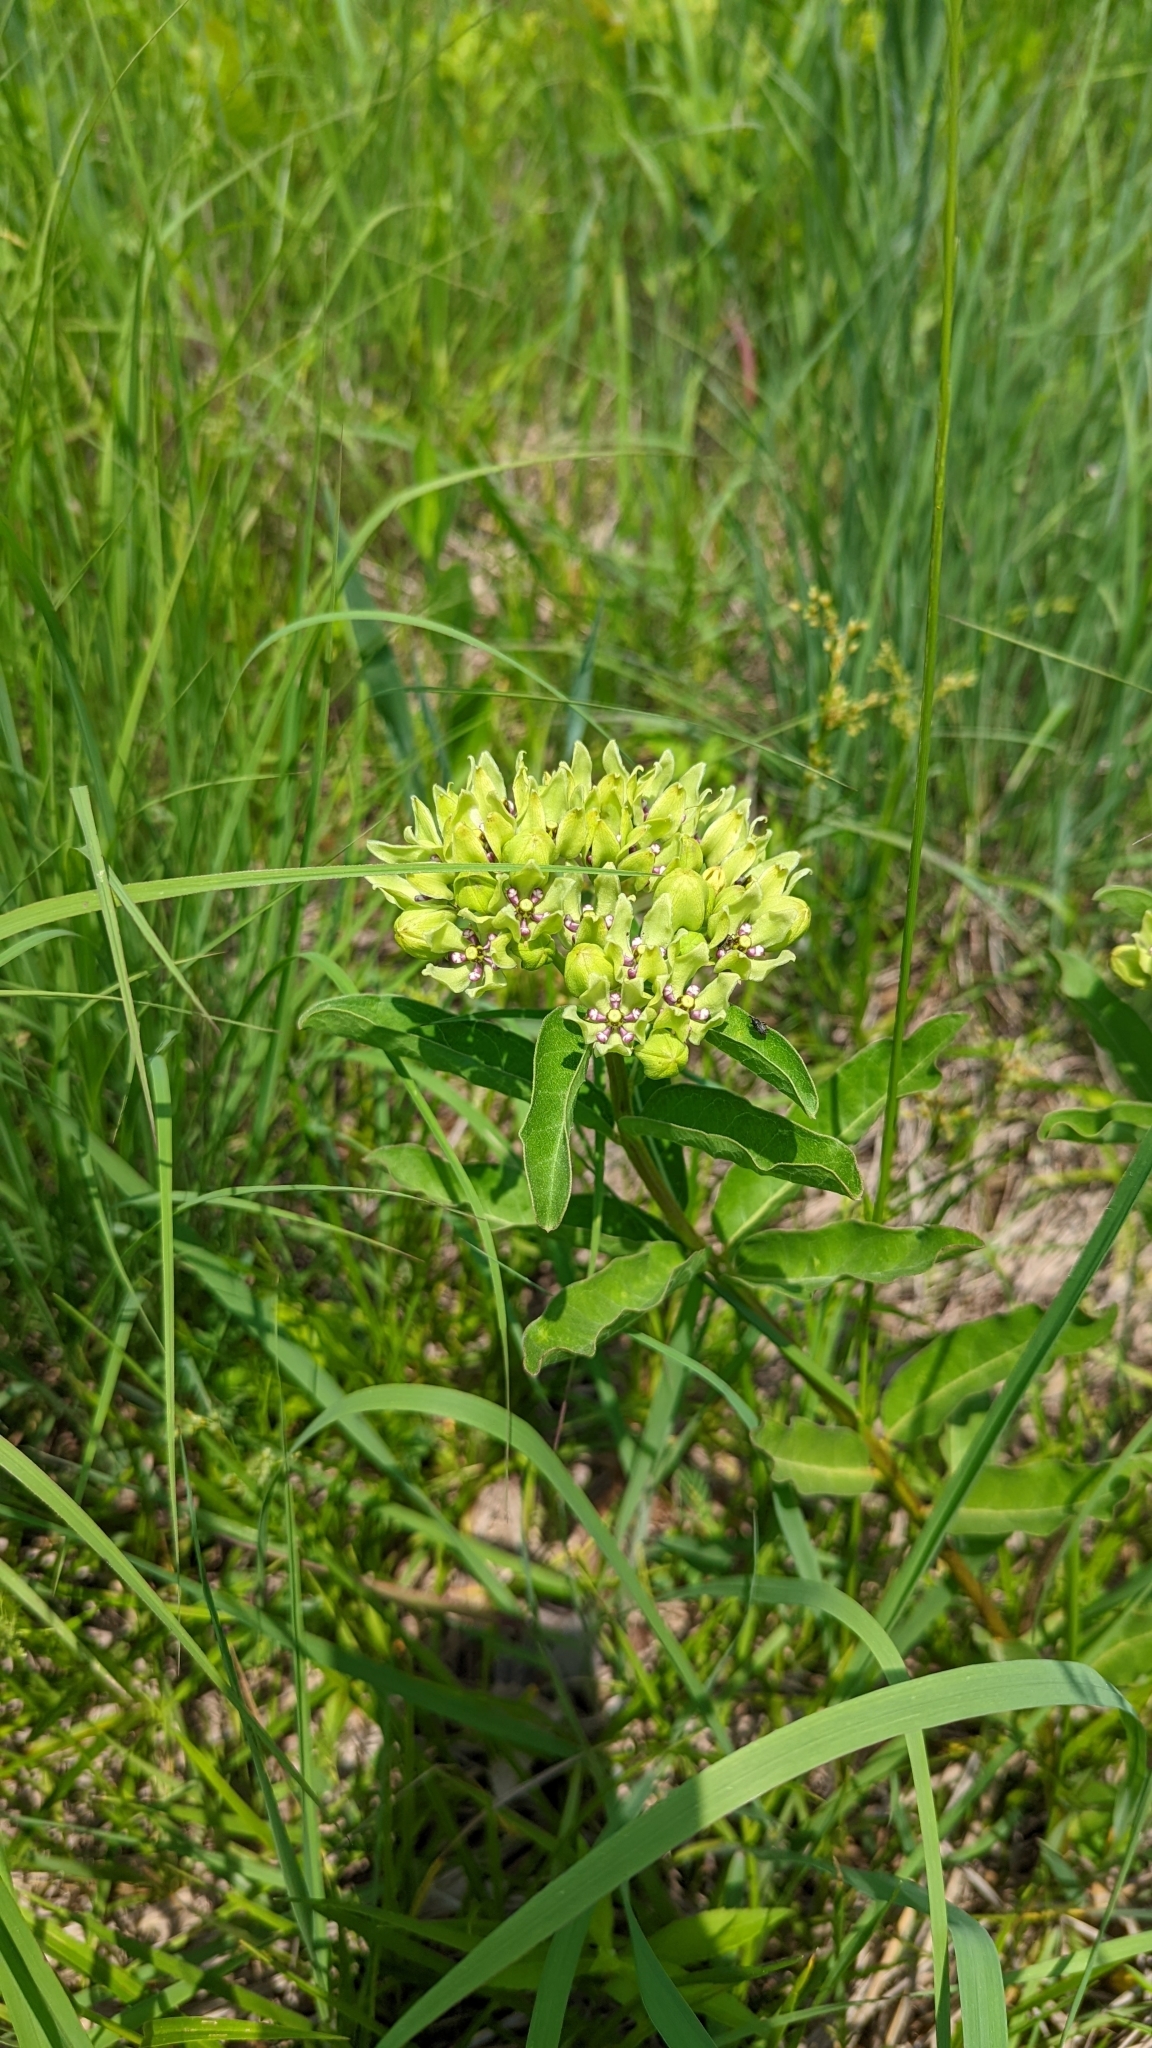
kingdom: Plantae
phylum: Tracheophyta
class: Magnoliopsida
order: Gentianales
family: Apocynaceae
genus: Asclepias
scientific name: Asclepias viridis
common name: Antelope-horns
